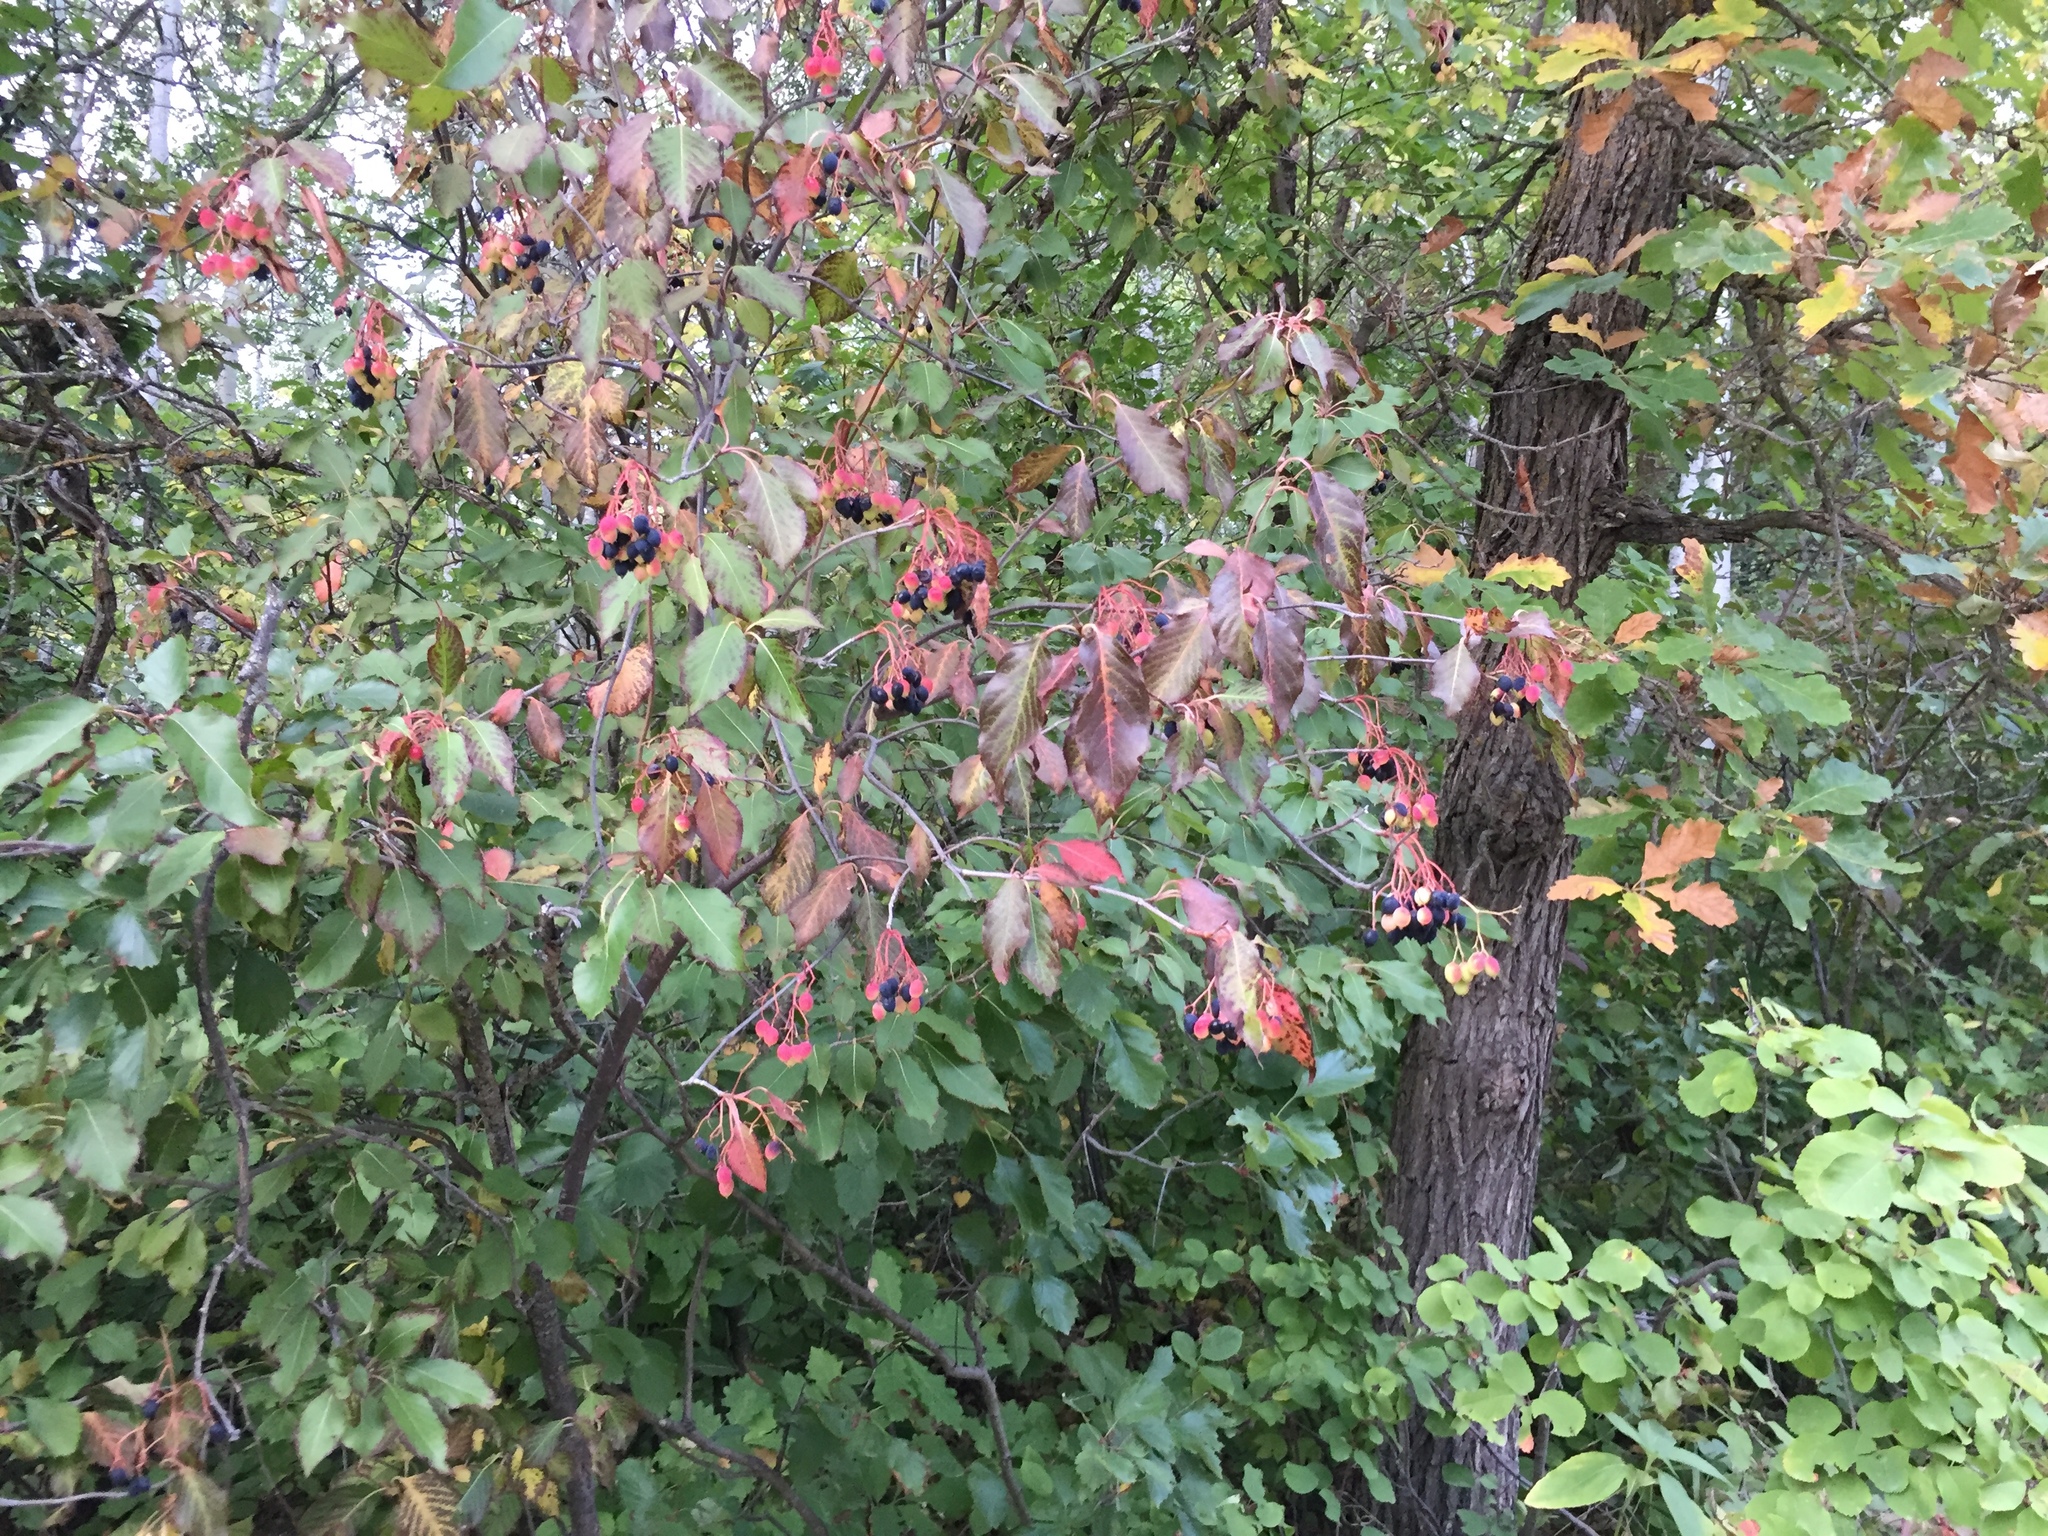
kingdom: Plantae
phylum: Tracheophyta
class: Magnoliopsida
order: Dipsacales
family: Viburnaceae
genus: Viburnum
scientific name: Viburnum lentago
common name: Black haw
